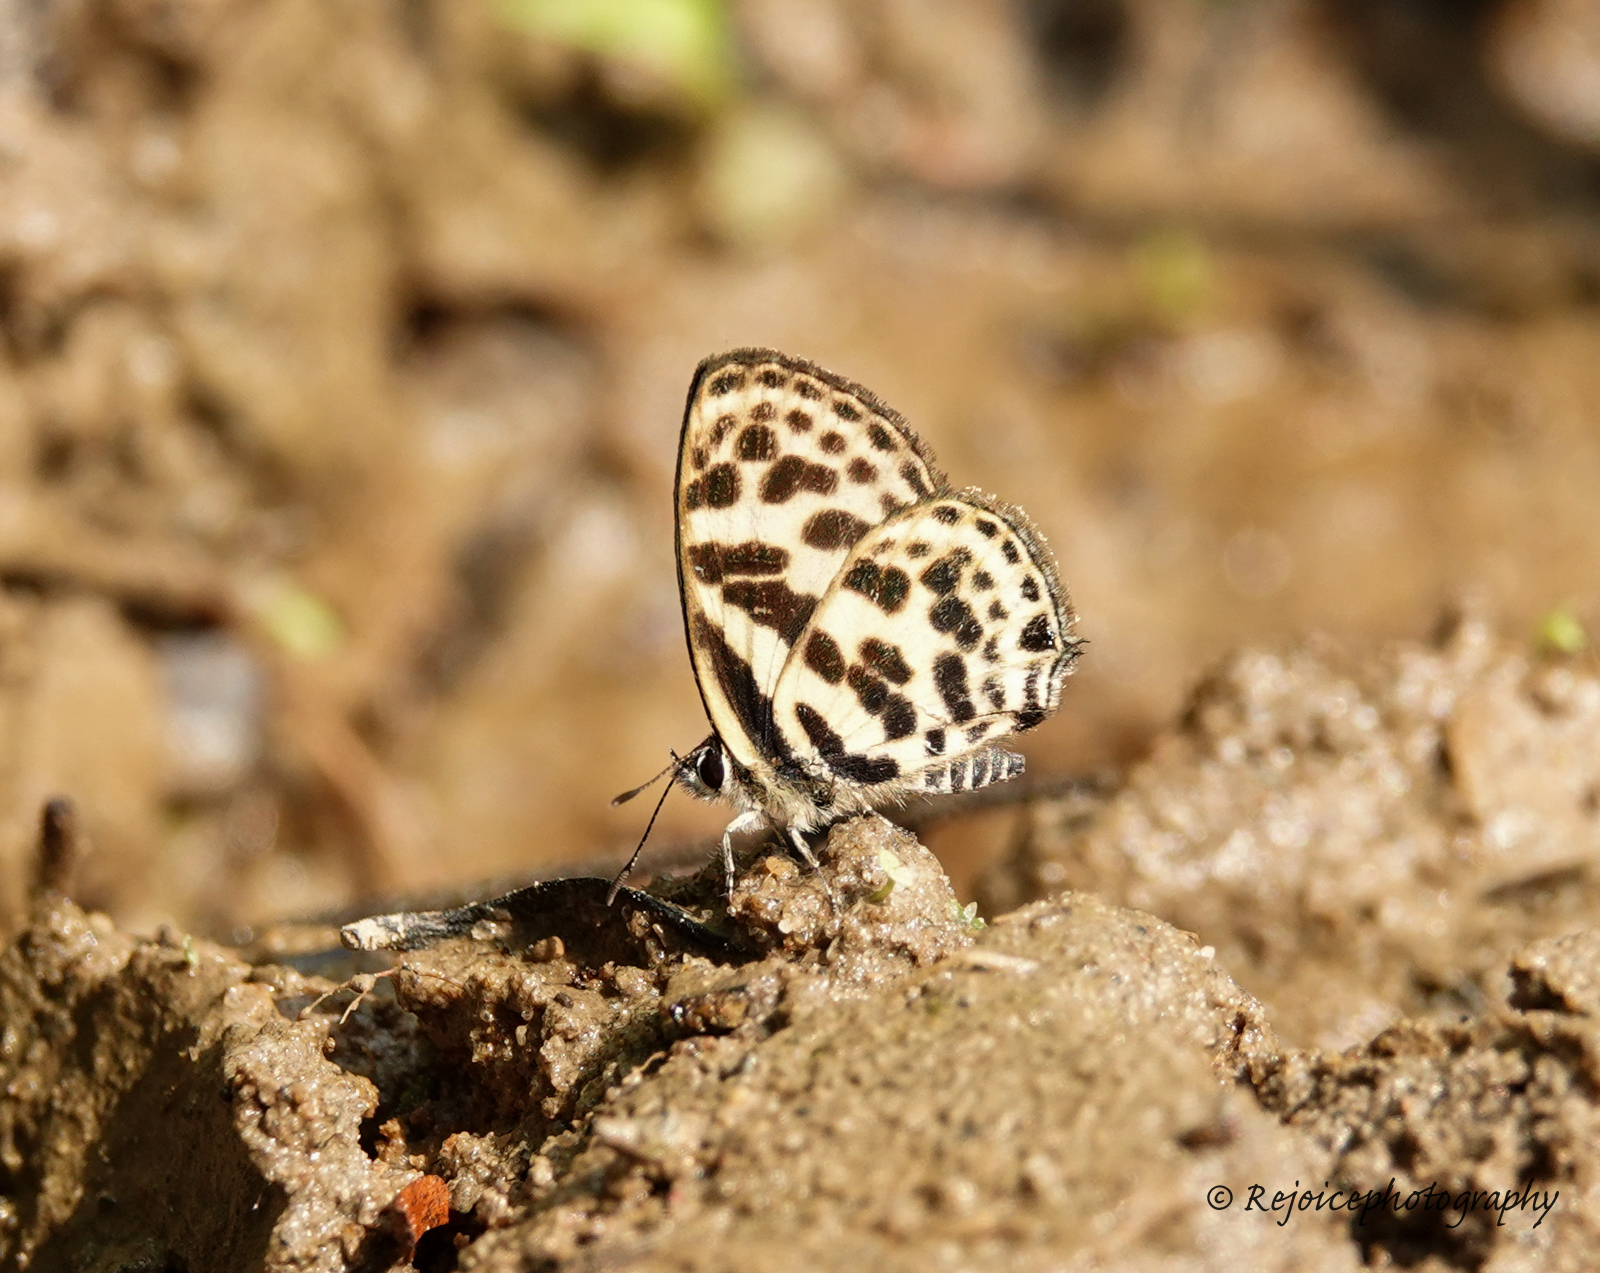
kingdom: Animalia
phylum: Arthropoda
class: Insecta
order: Lepidoptera
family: Lycaenidae
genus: Tarucus
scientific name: Tarucus
